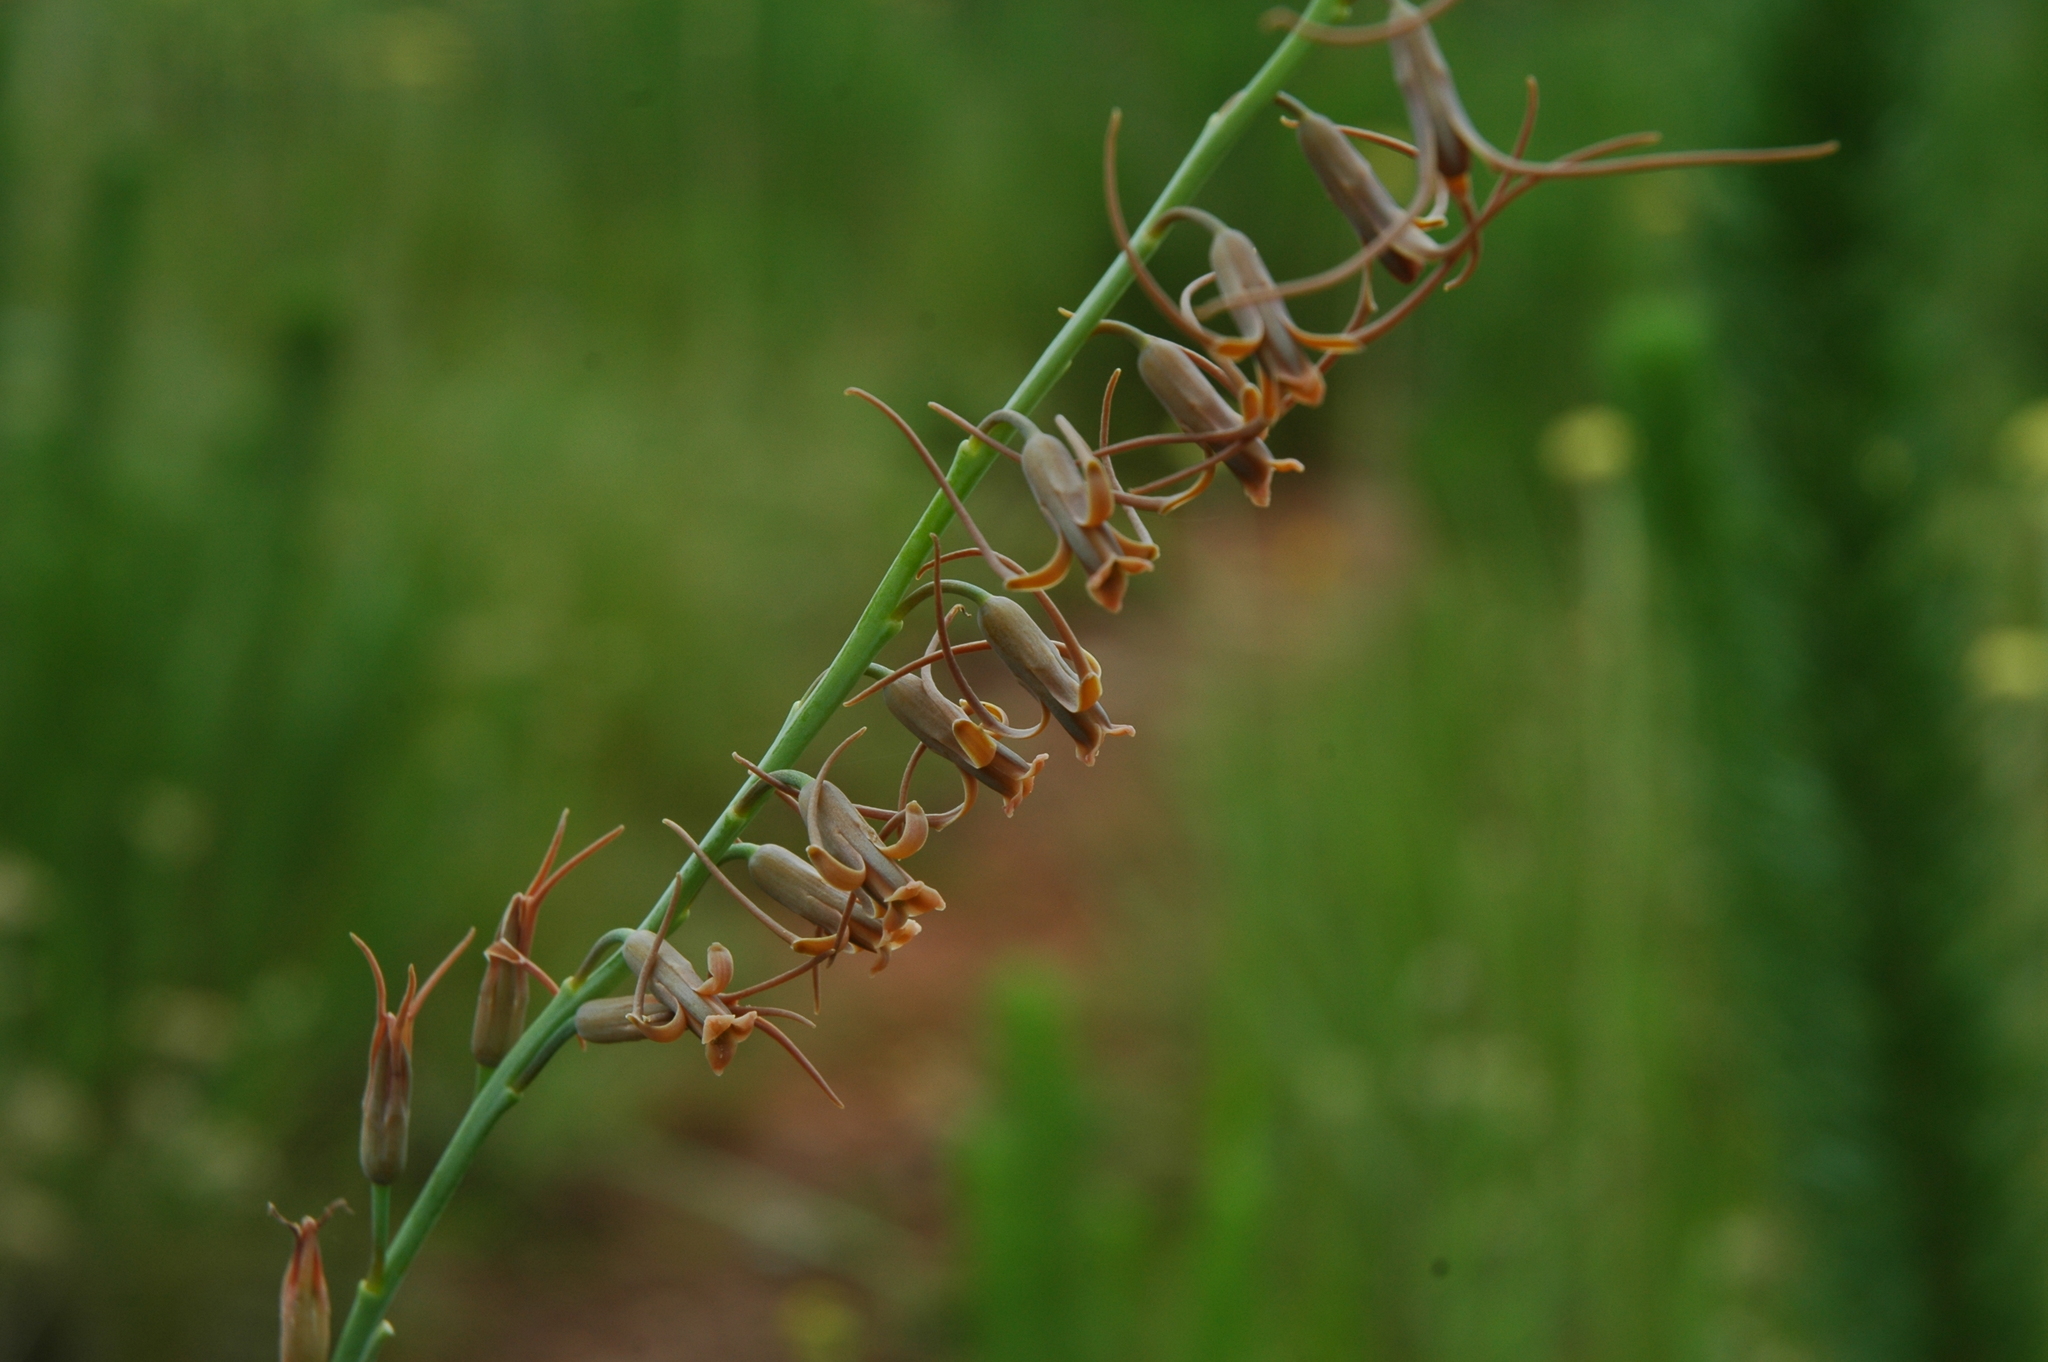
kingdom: Plantae
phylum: Tracheophyta
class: Liliopsida
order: Asparagales
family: Asparagaceae
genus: Dipcadi
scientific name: Dipcadi viride
